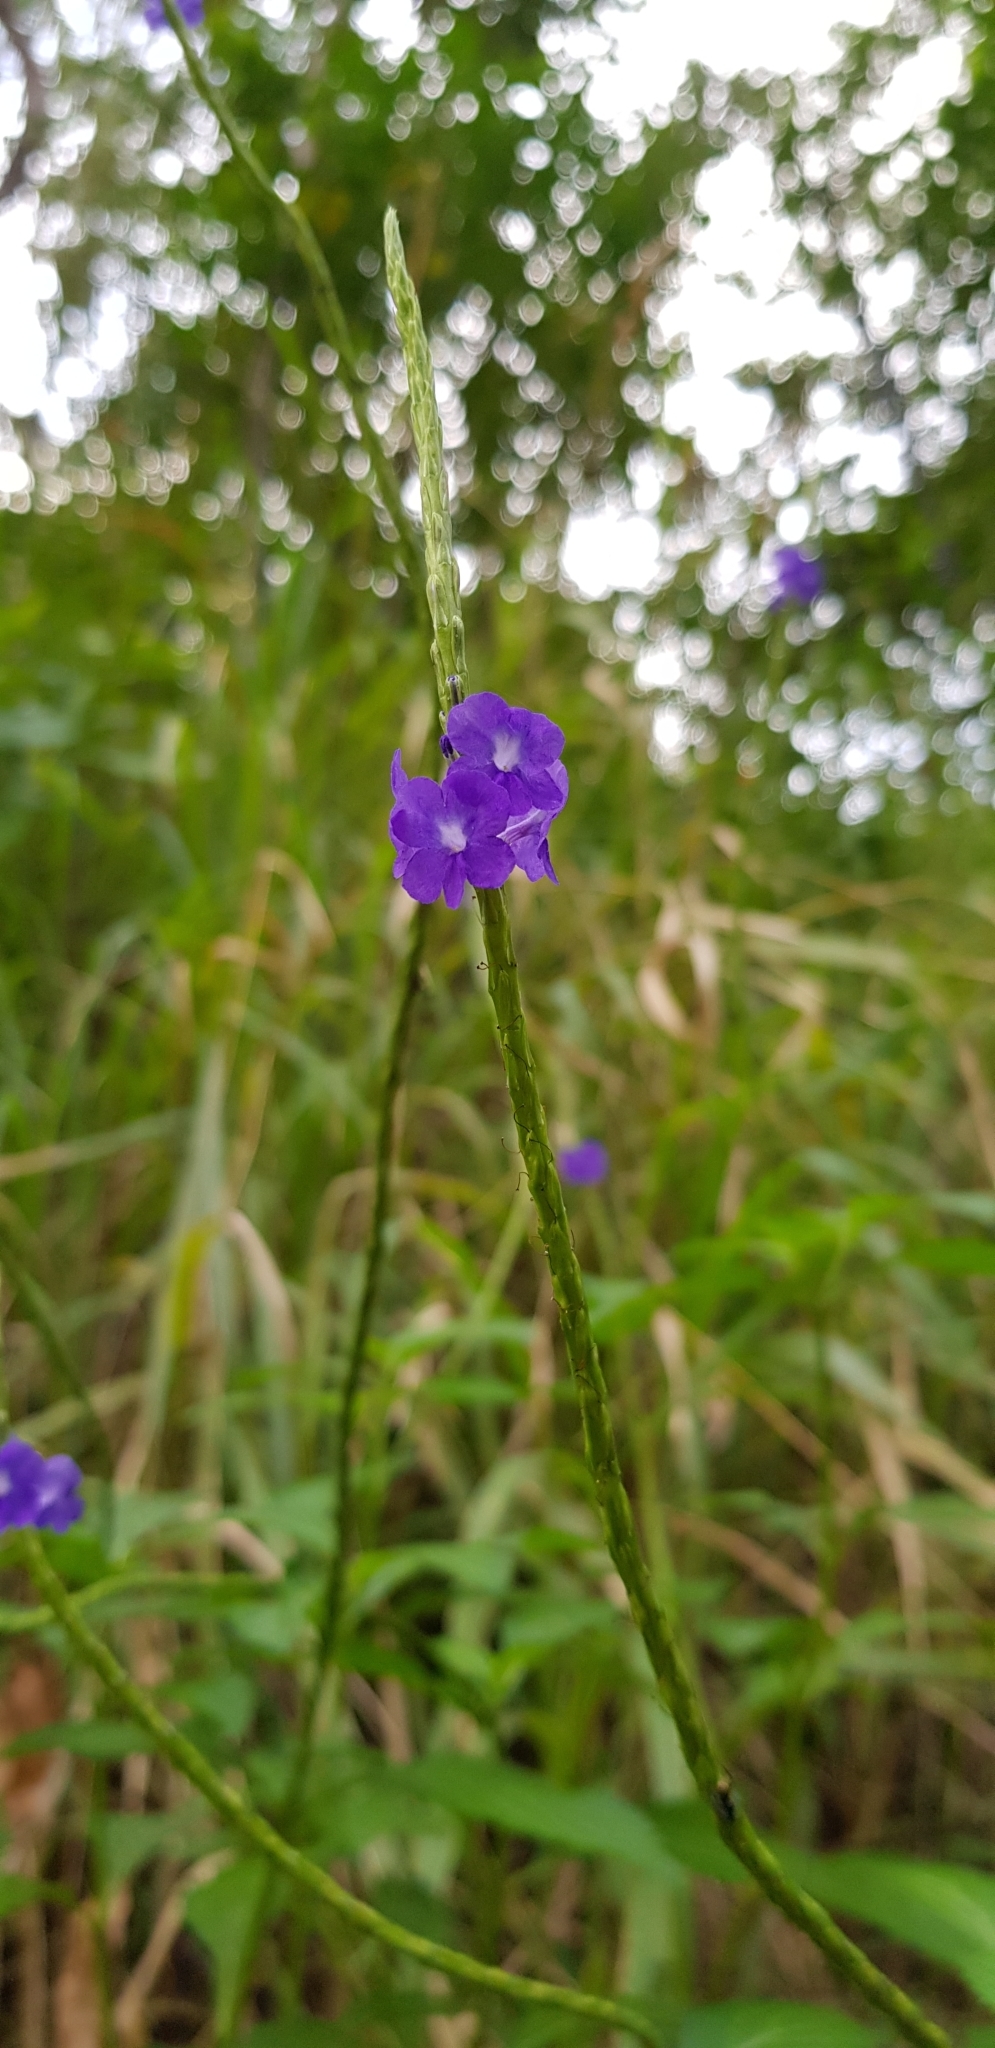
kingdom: Plantae
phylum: Tracheophyta
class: Magnoliopsida
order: Lamiales
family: Verbenaceae
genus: Stachytarpheta
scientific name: Stachytarpheta cayennensis
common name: Cayenne porterweed
